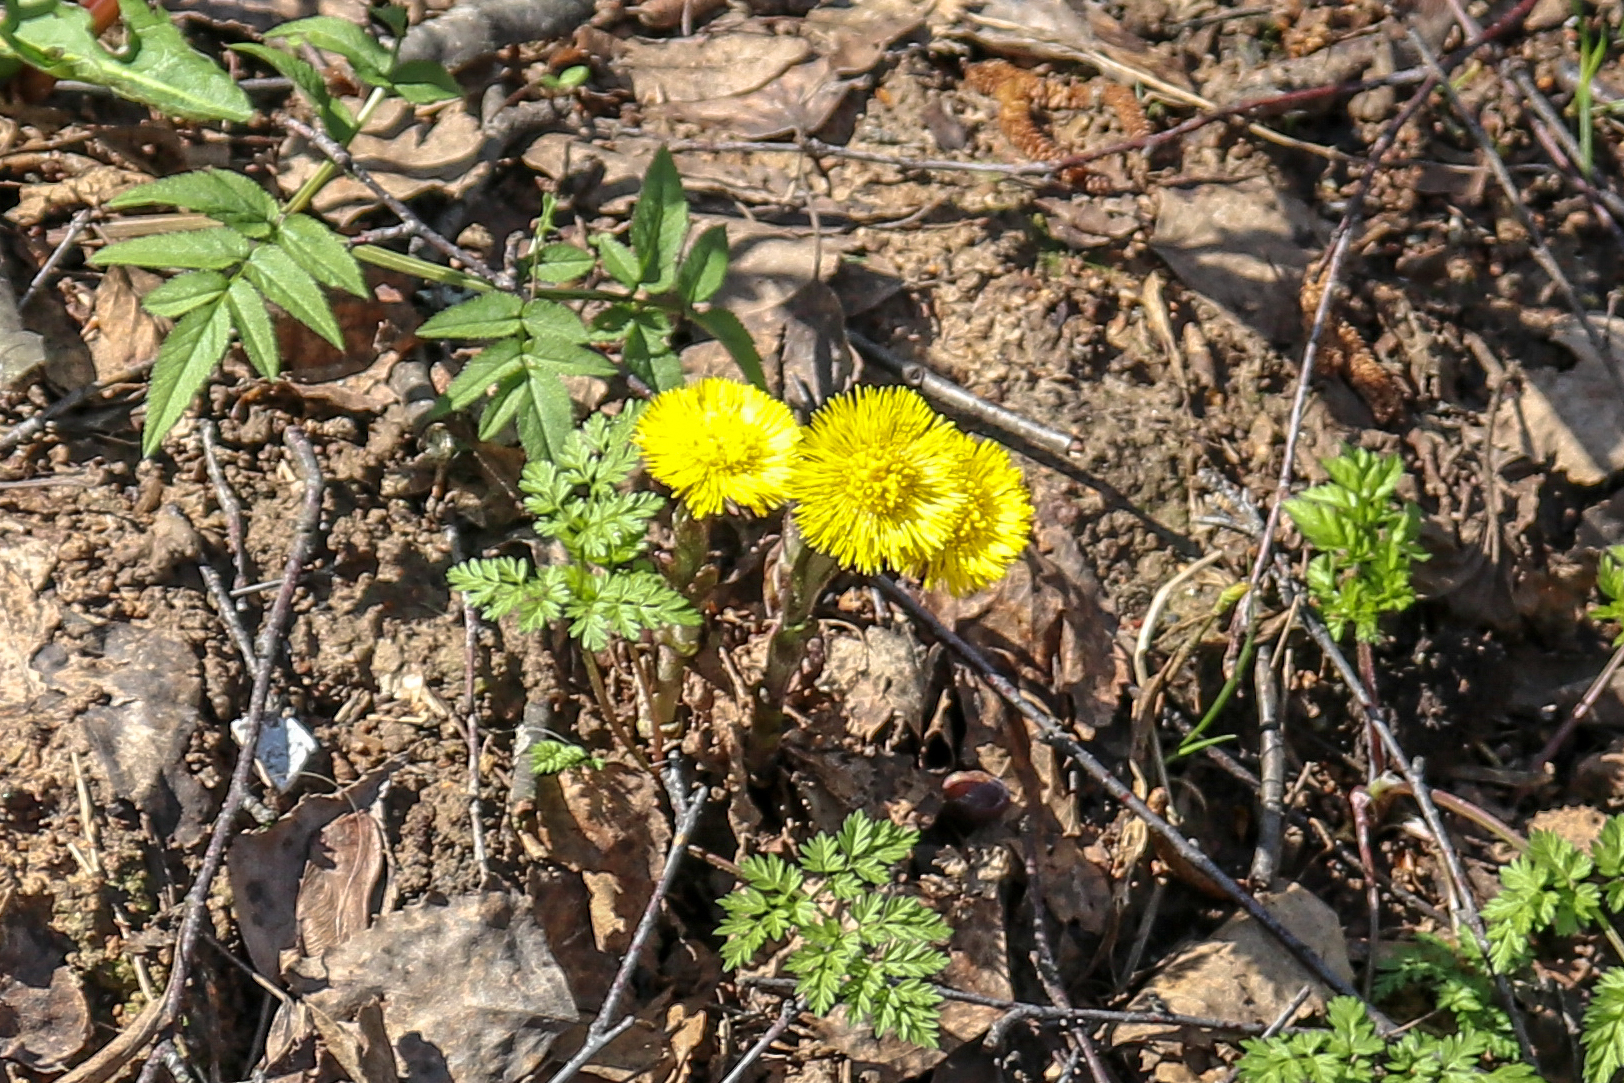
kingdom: Plantae
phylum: Tracheophyta
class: Magnoliopsida
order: Asterales
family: Asteraceae
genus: Tussilago
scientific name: Tussilago farfara
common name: Coltsfoot
